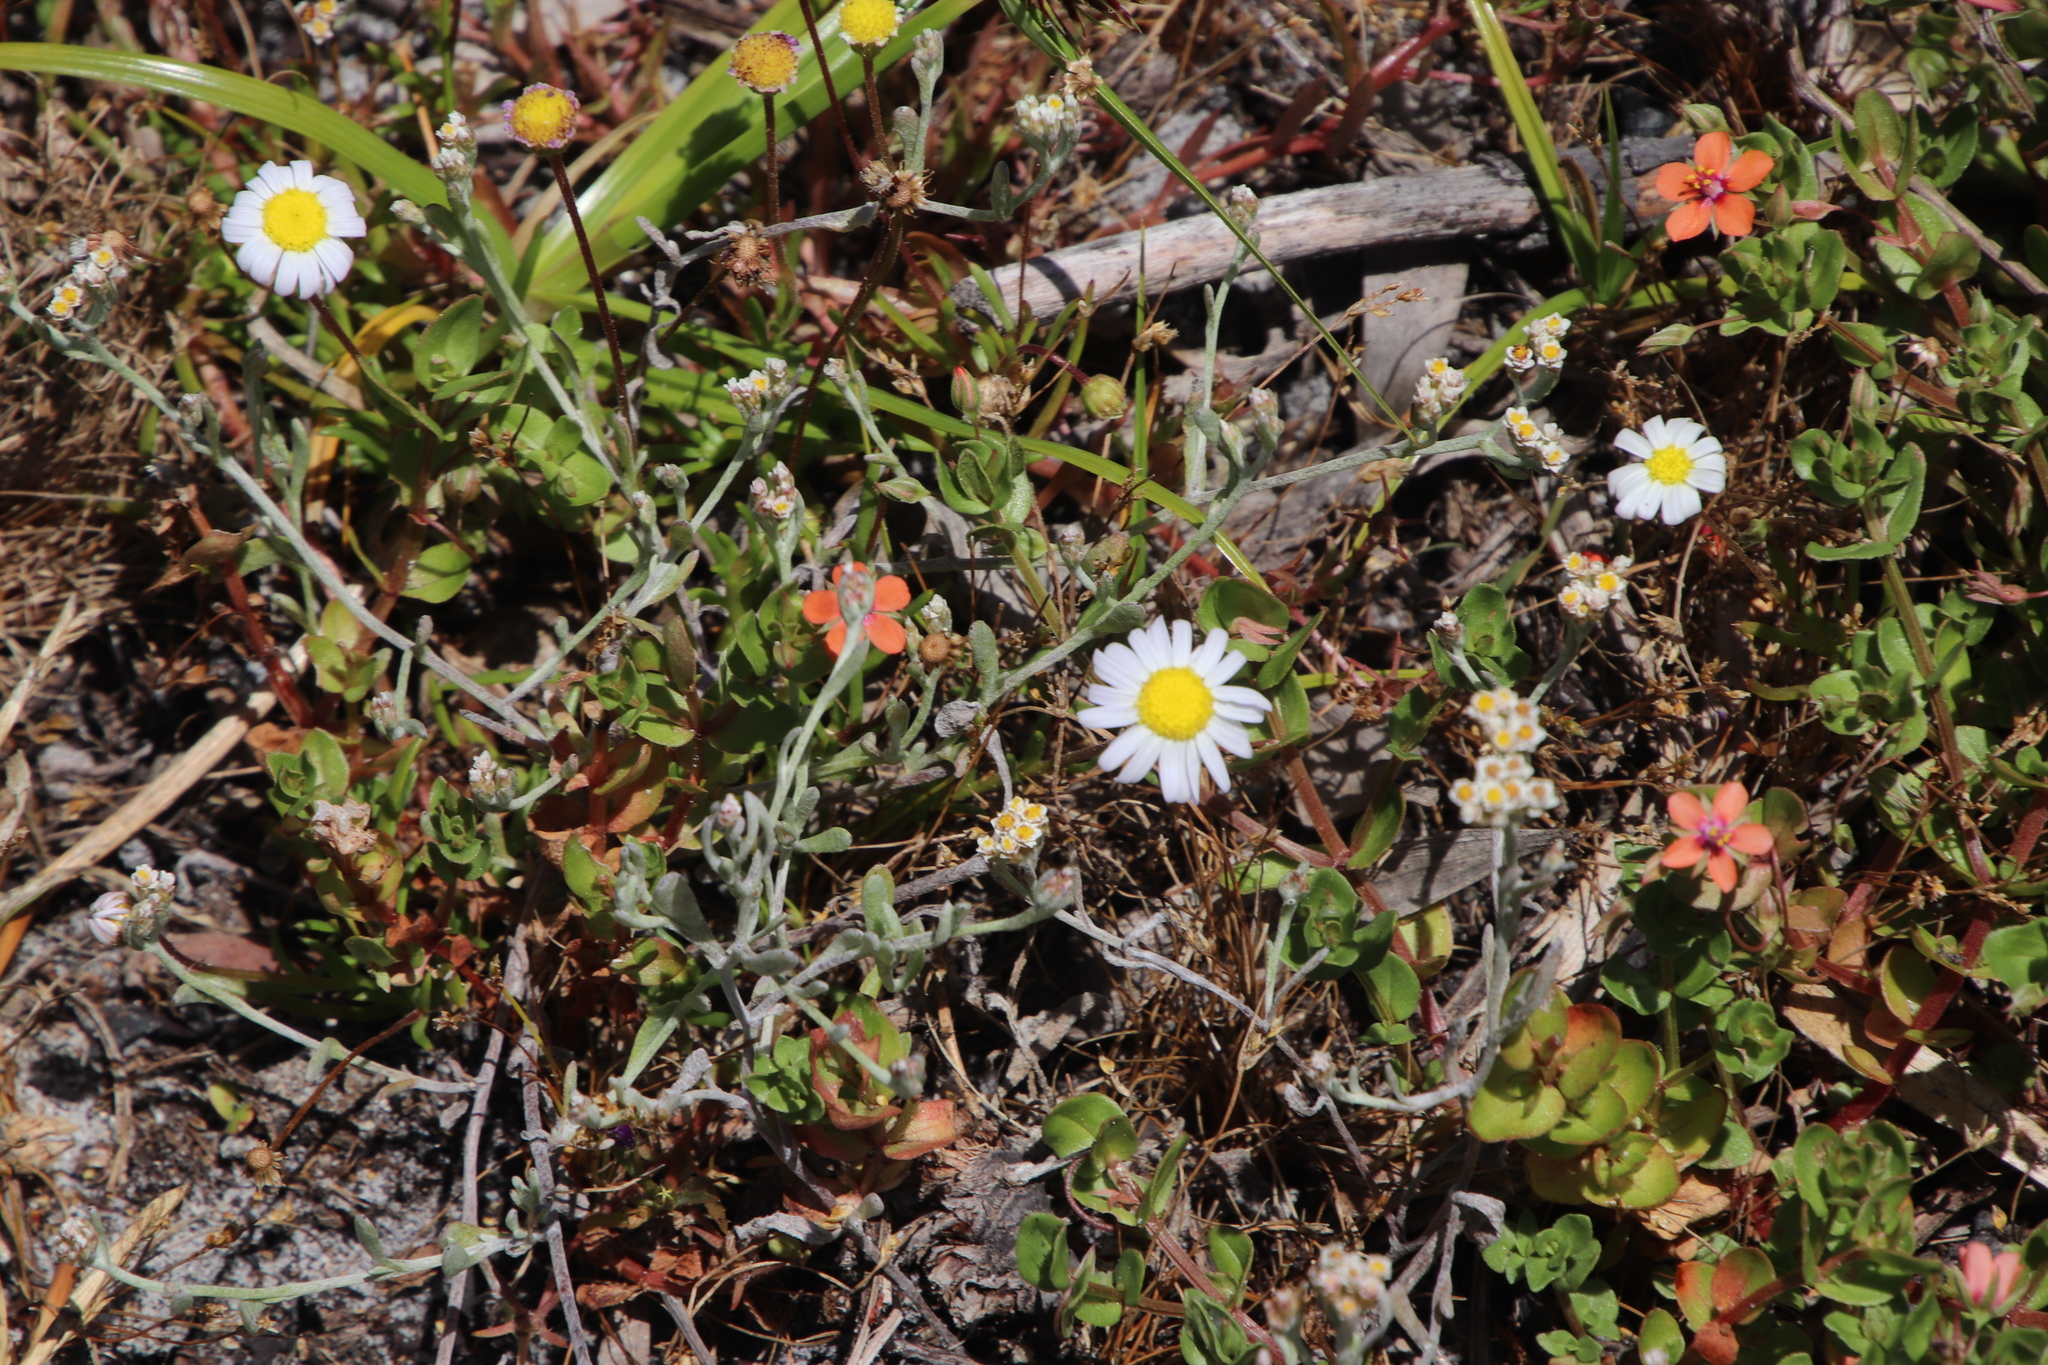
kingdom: Plantae
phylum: Tracheophyta
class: Magnoliopsida
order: Asterales
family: Asteraceae
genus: Felicia
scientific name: Felicia tenella
